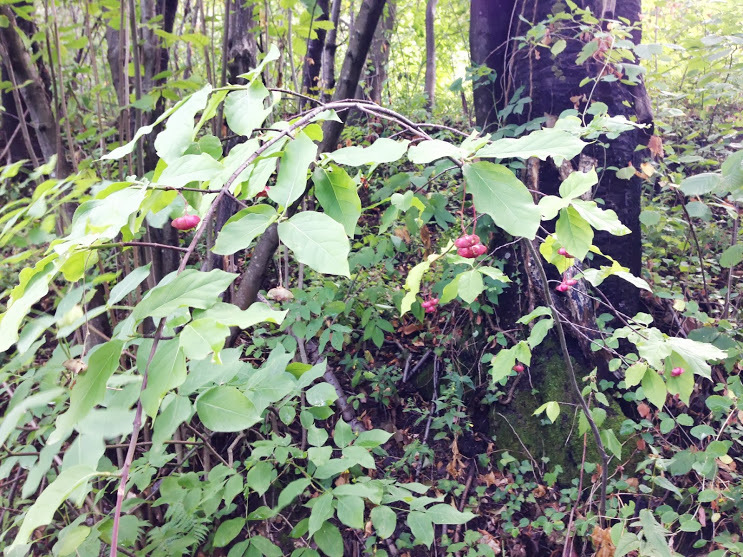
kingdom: Plantae
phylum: Tracheophyta
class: Magnoliopsida
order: Celastrales
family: Celastraceae
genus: Euonymus
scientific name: Euonymus europaeus
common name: Spindle
